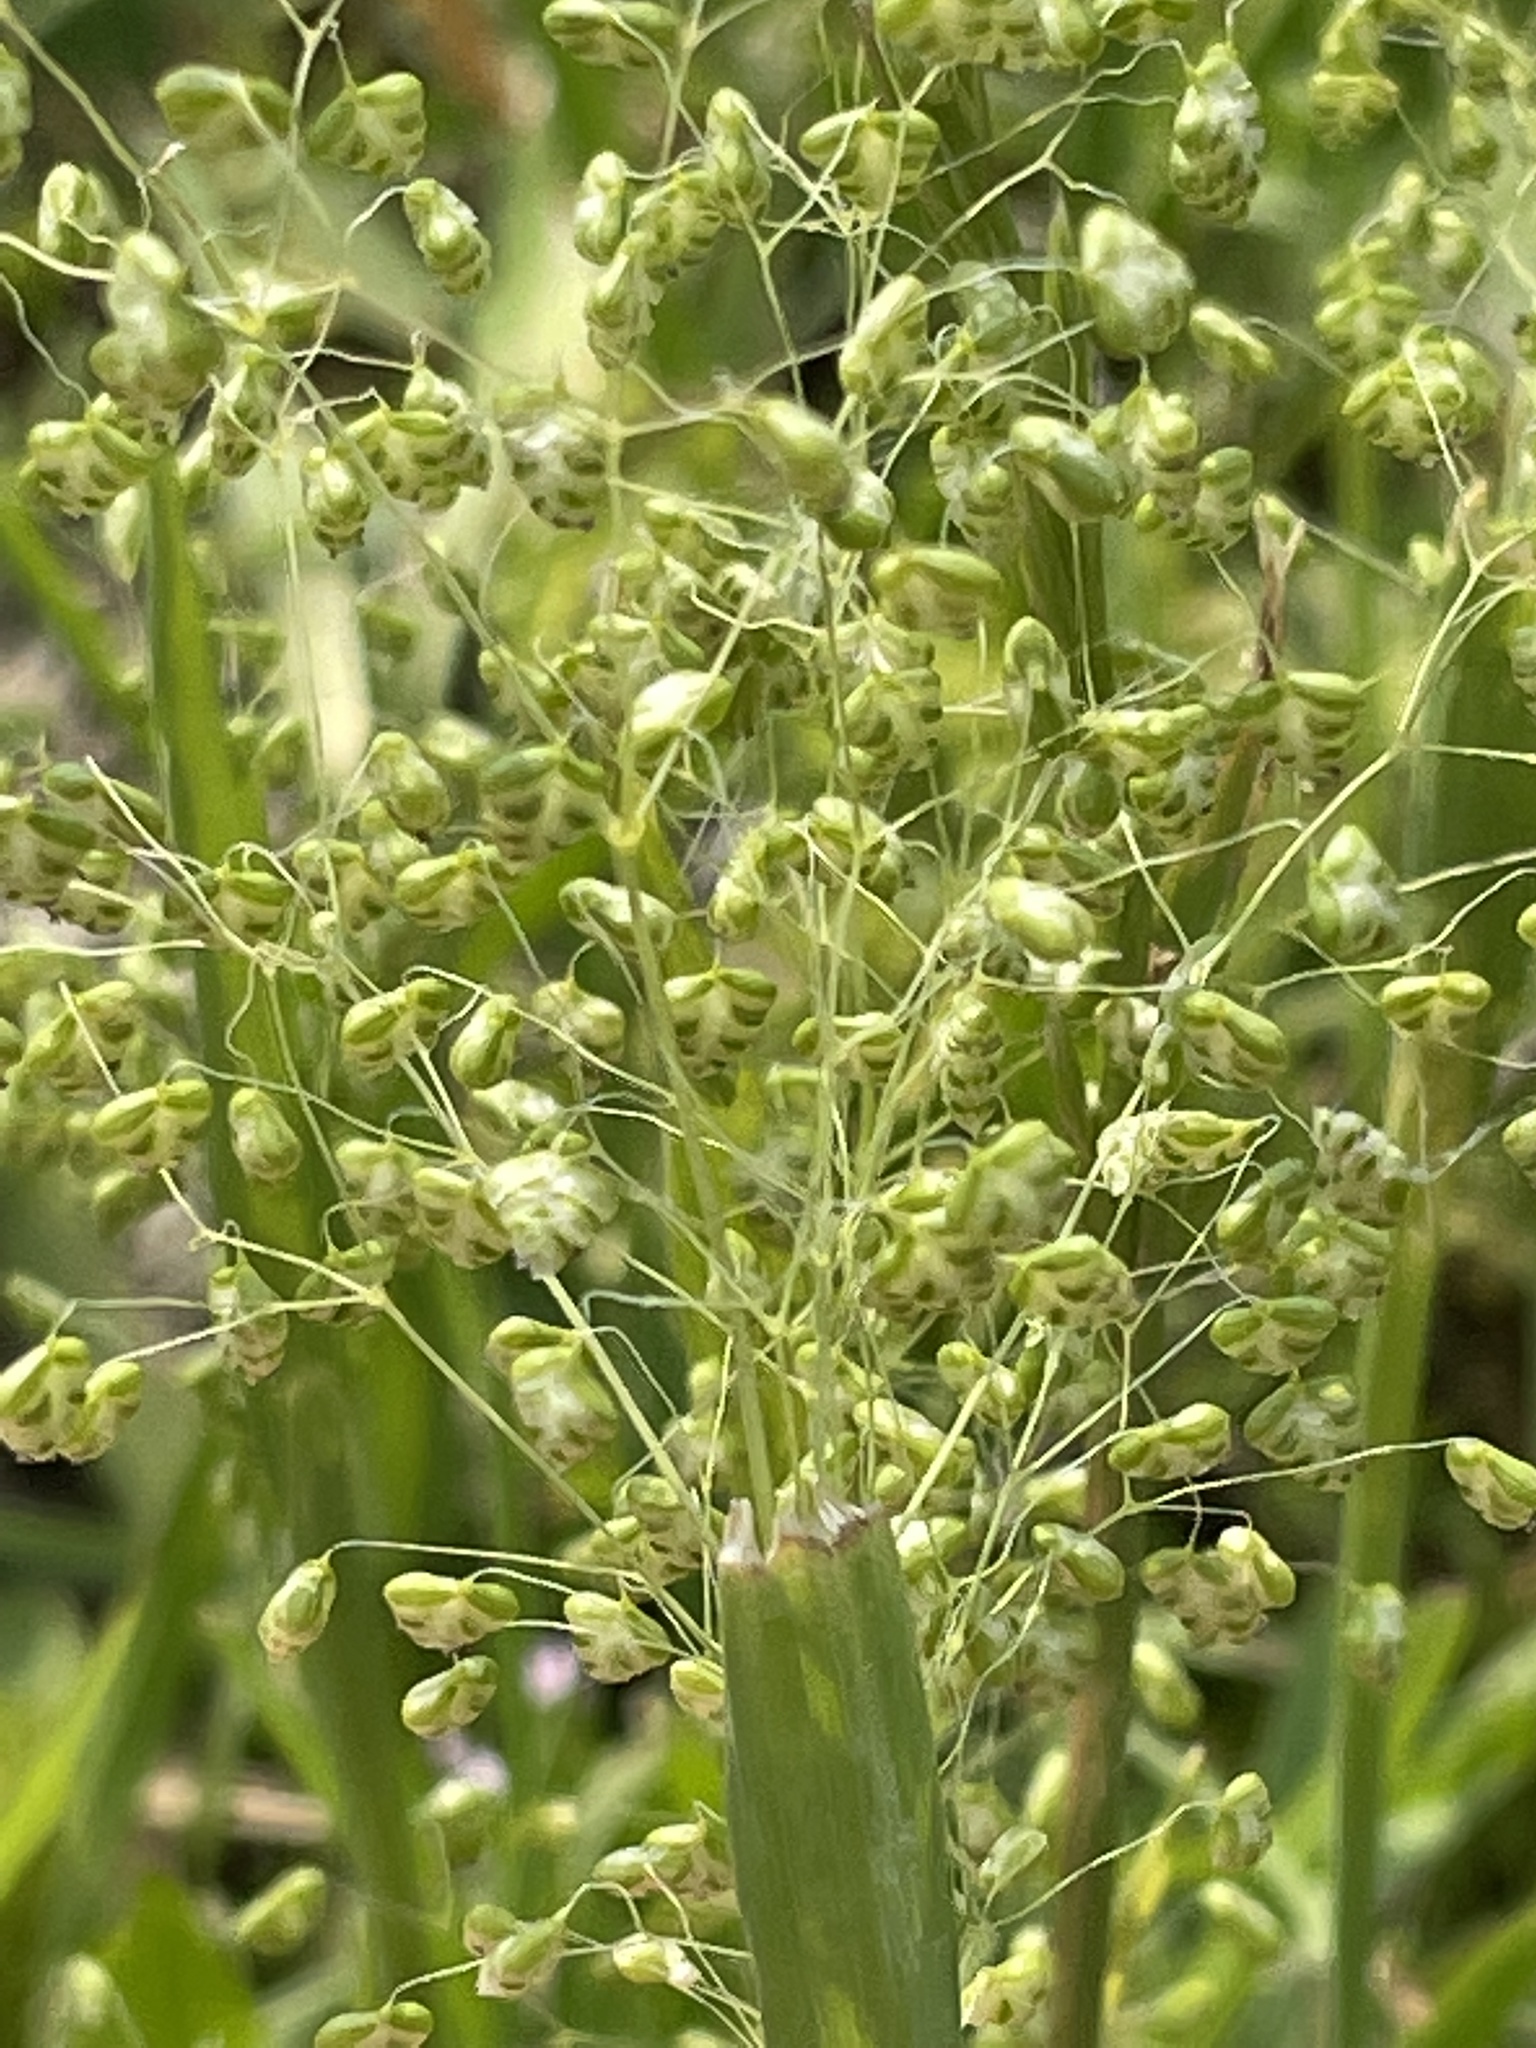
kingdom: Plantae
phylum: Tracheophyta
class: Liliopsida
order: Poales
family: Poaceae
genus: Briza
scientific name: Briza minor
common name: Lesser quaking-grass
